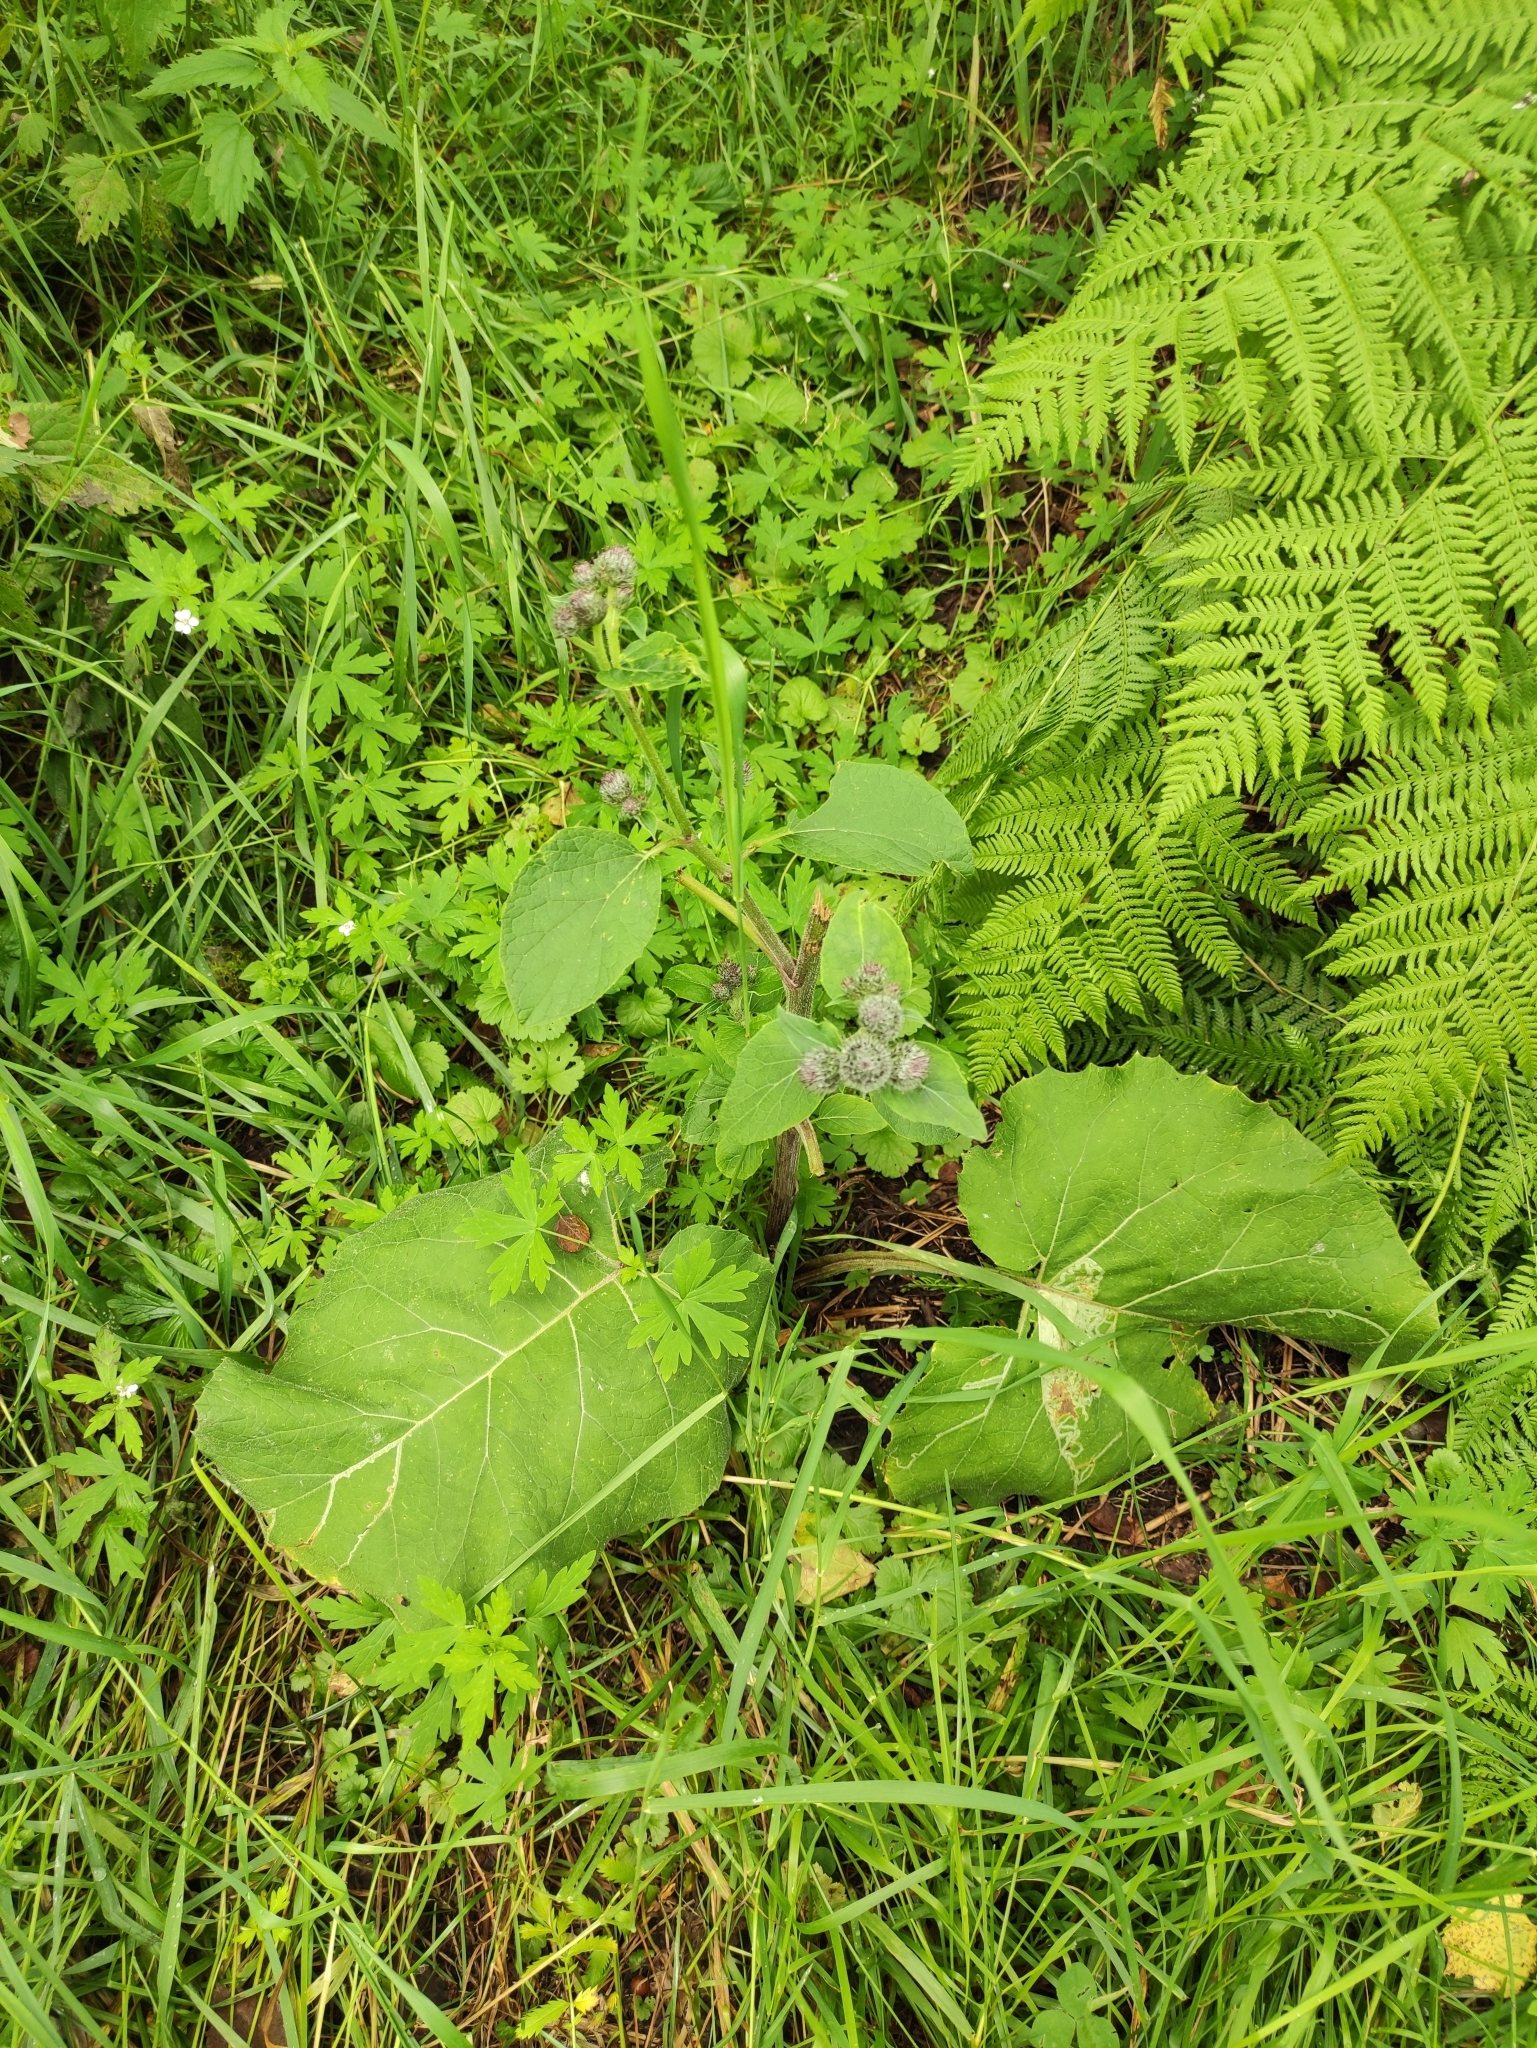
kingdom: Plantae
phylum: Tracheophyta
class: Magnoliopsida
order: Asterales
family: Asteraceae
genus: Arctium
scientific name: Arctium tomentosum
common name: Woolly burdock
